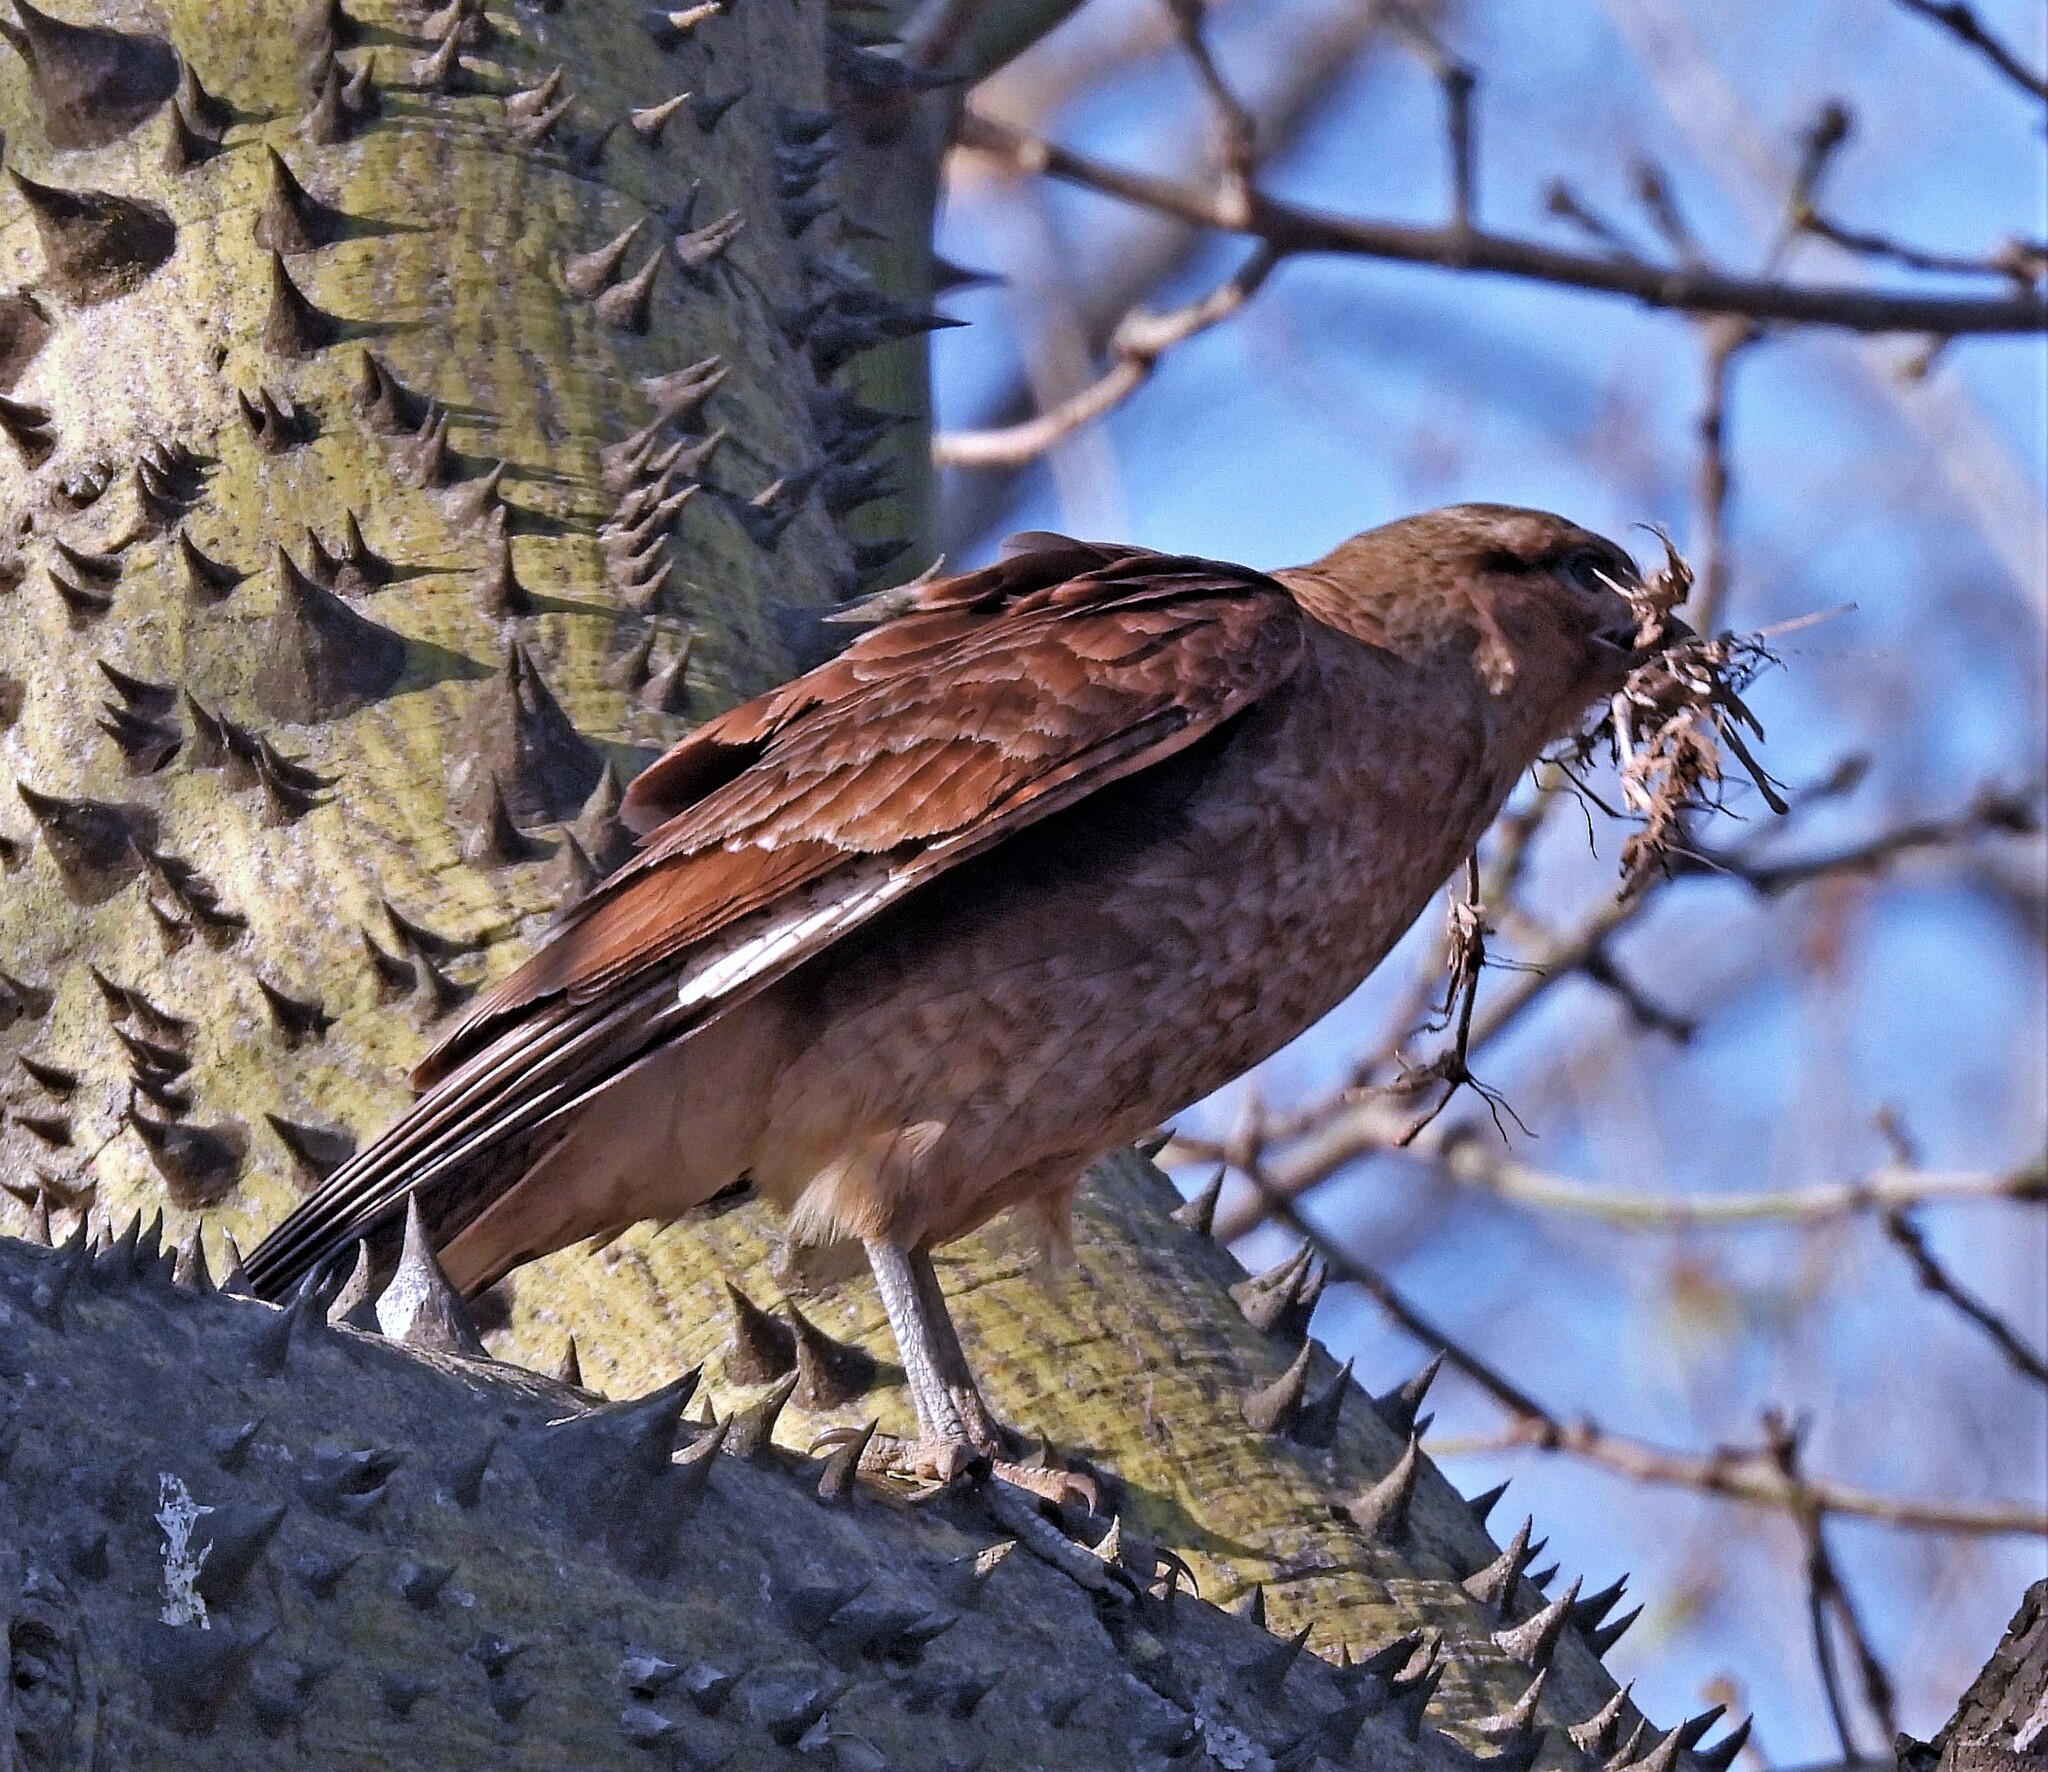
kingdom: Animalia
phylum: Chordata
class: Aves
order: Falconiformes
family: Falconidae
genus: Daptrius
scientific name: Daptrius
